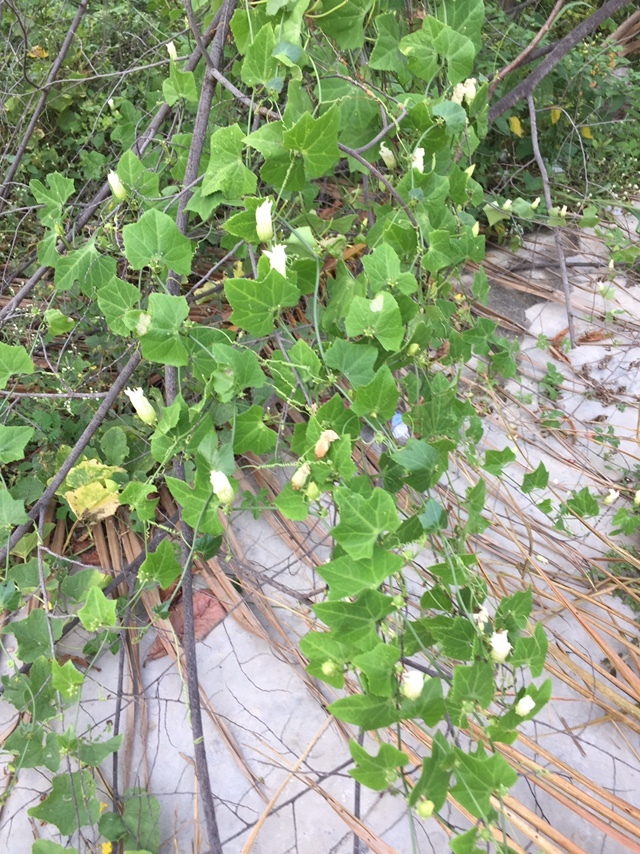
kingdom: Plantae
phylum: Tracheophyta
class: Magnoliopsida
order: Cucurbitales
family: Cucurbitaceae
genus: Coccinia
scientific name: Coccinia grandis
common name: Ivy gourd
